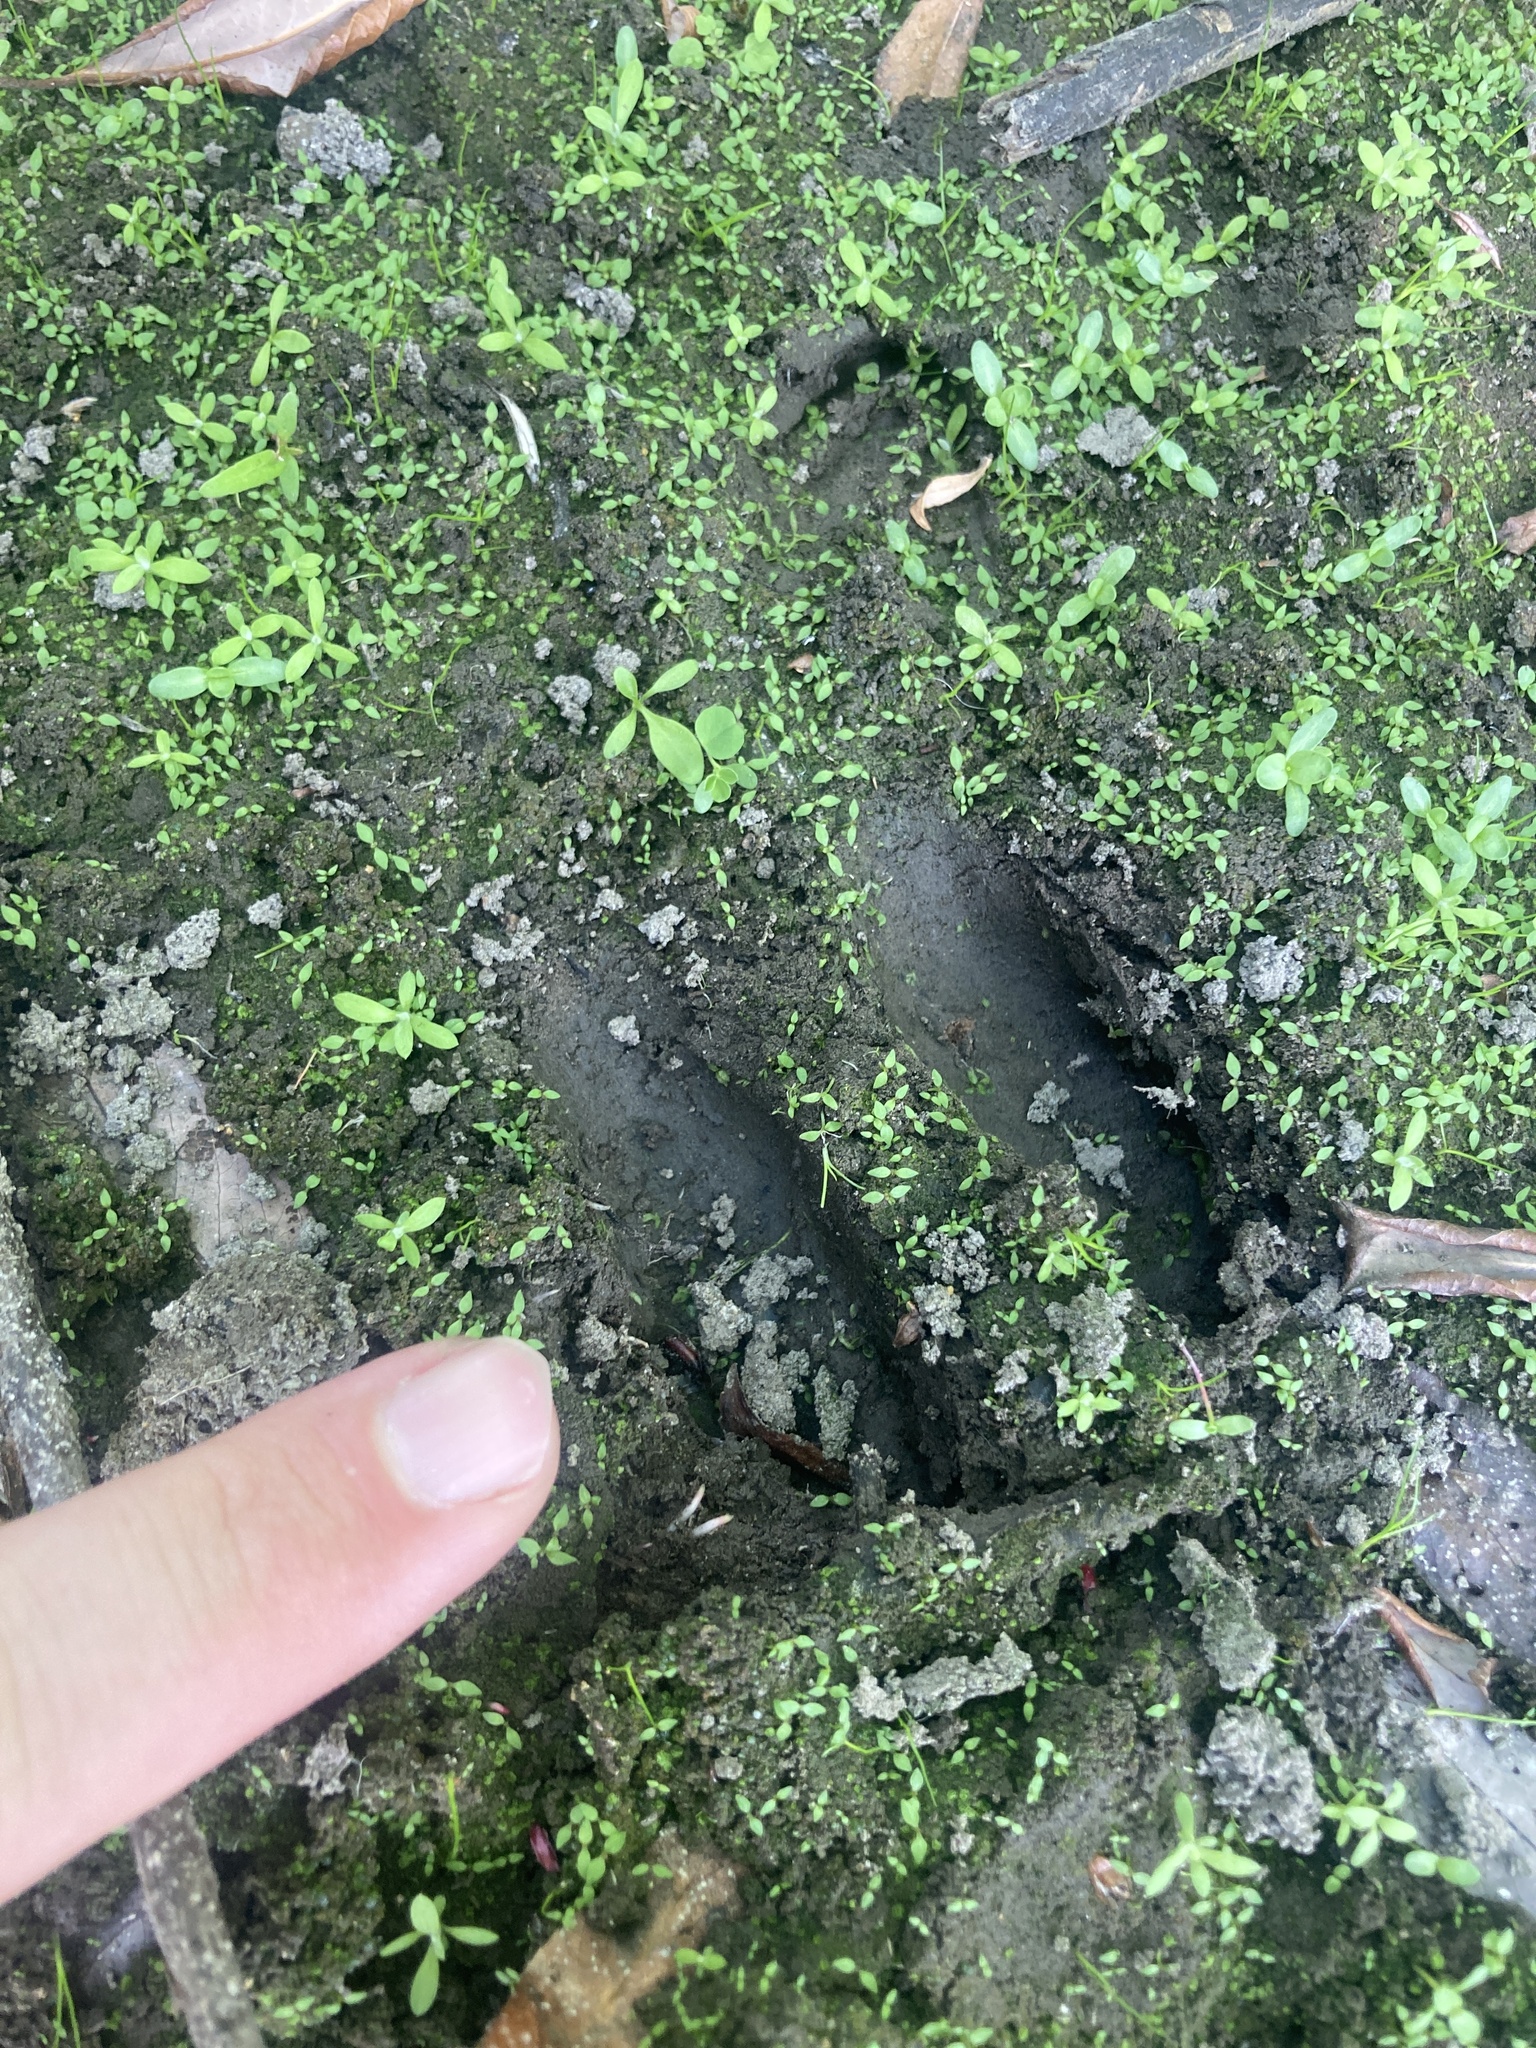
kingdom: Animalia
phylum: Chordata
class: Mammalia
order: Artiodactyla
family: Cervidae
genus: Odocoileus
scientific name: Odocoileus hemionus
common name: Mule deer
